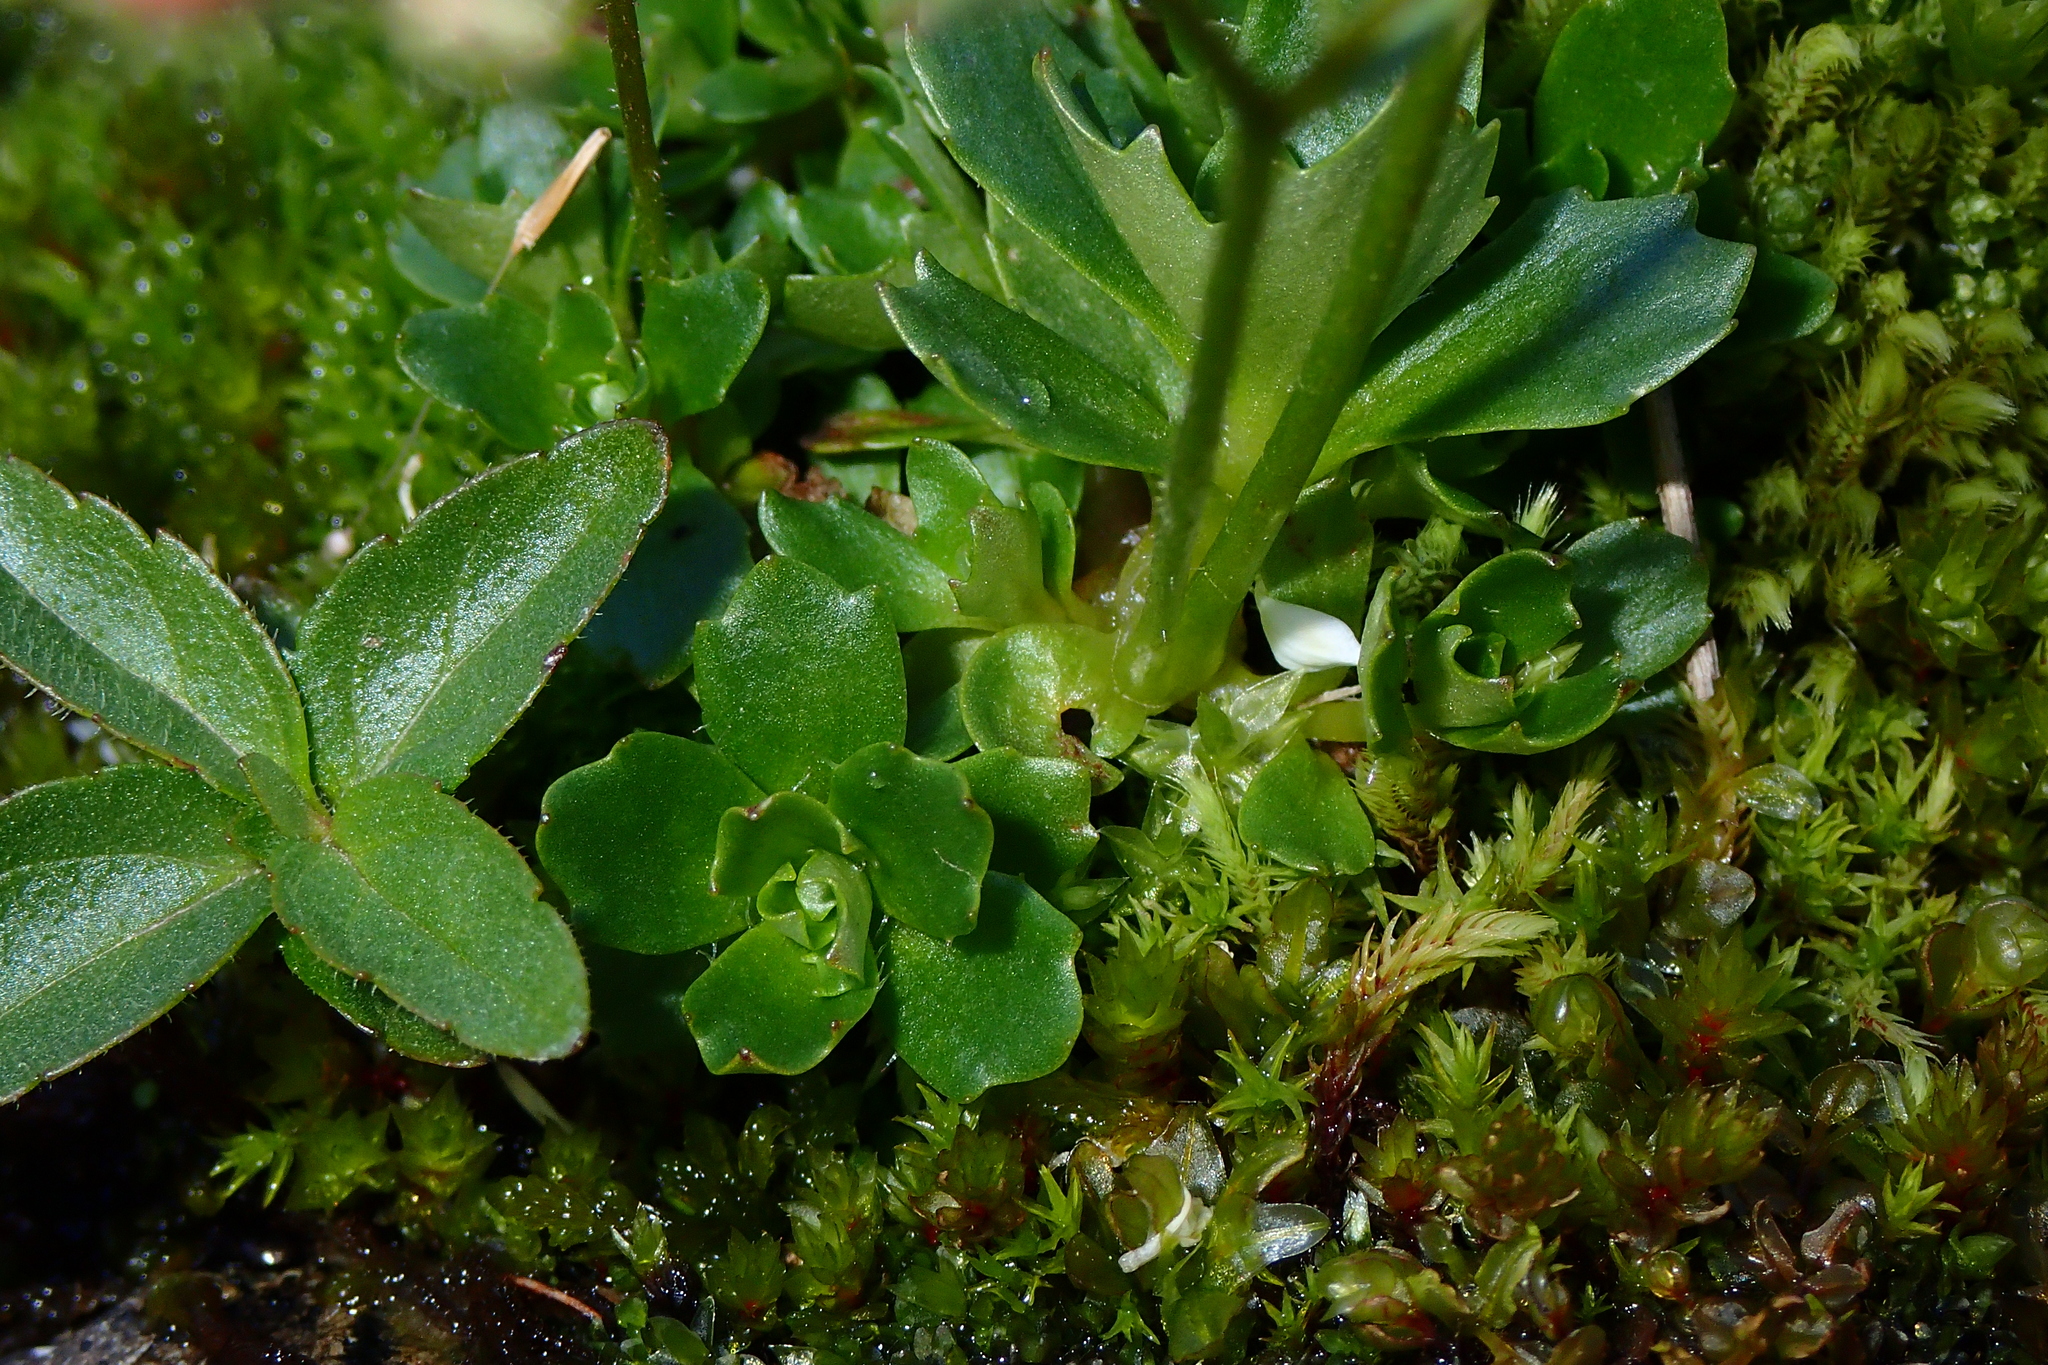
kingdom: Plantae
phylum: Tracheophyta
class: Magnoliopsida
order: Saxifragales
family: Saxifragaceae
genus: Micranthes
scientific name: Micranthes stellaris
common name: Starry saxifrage
